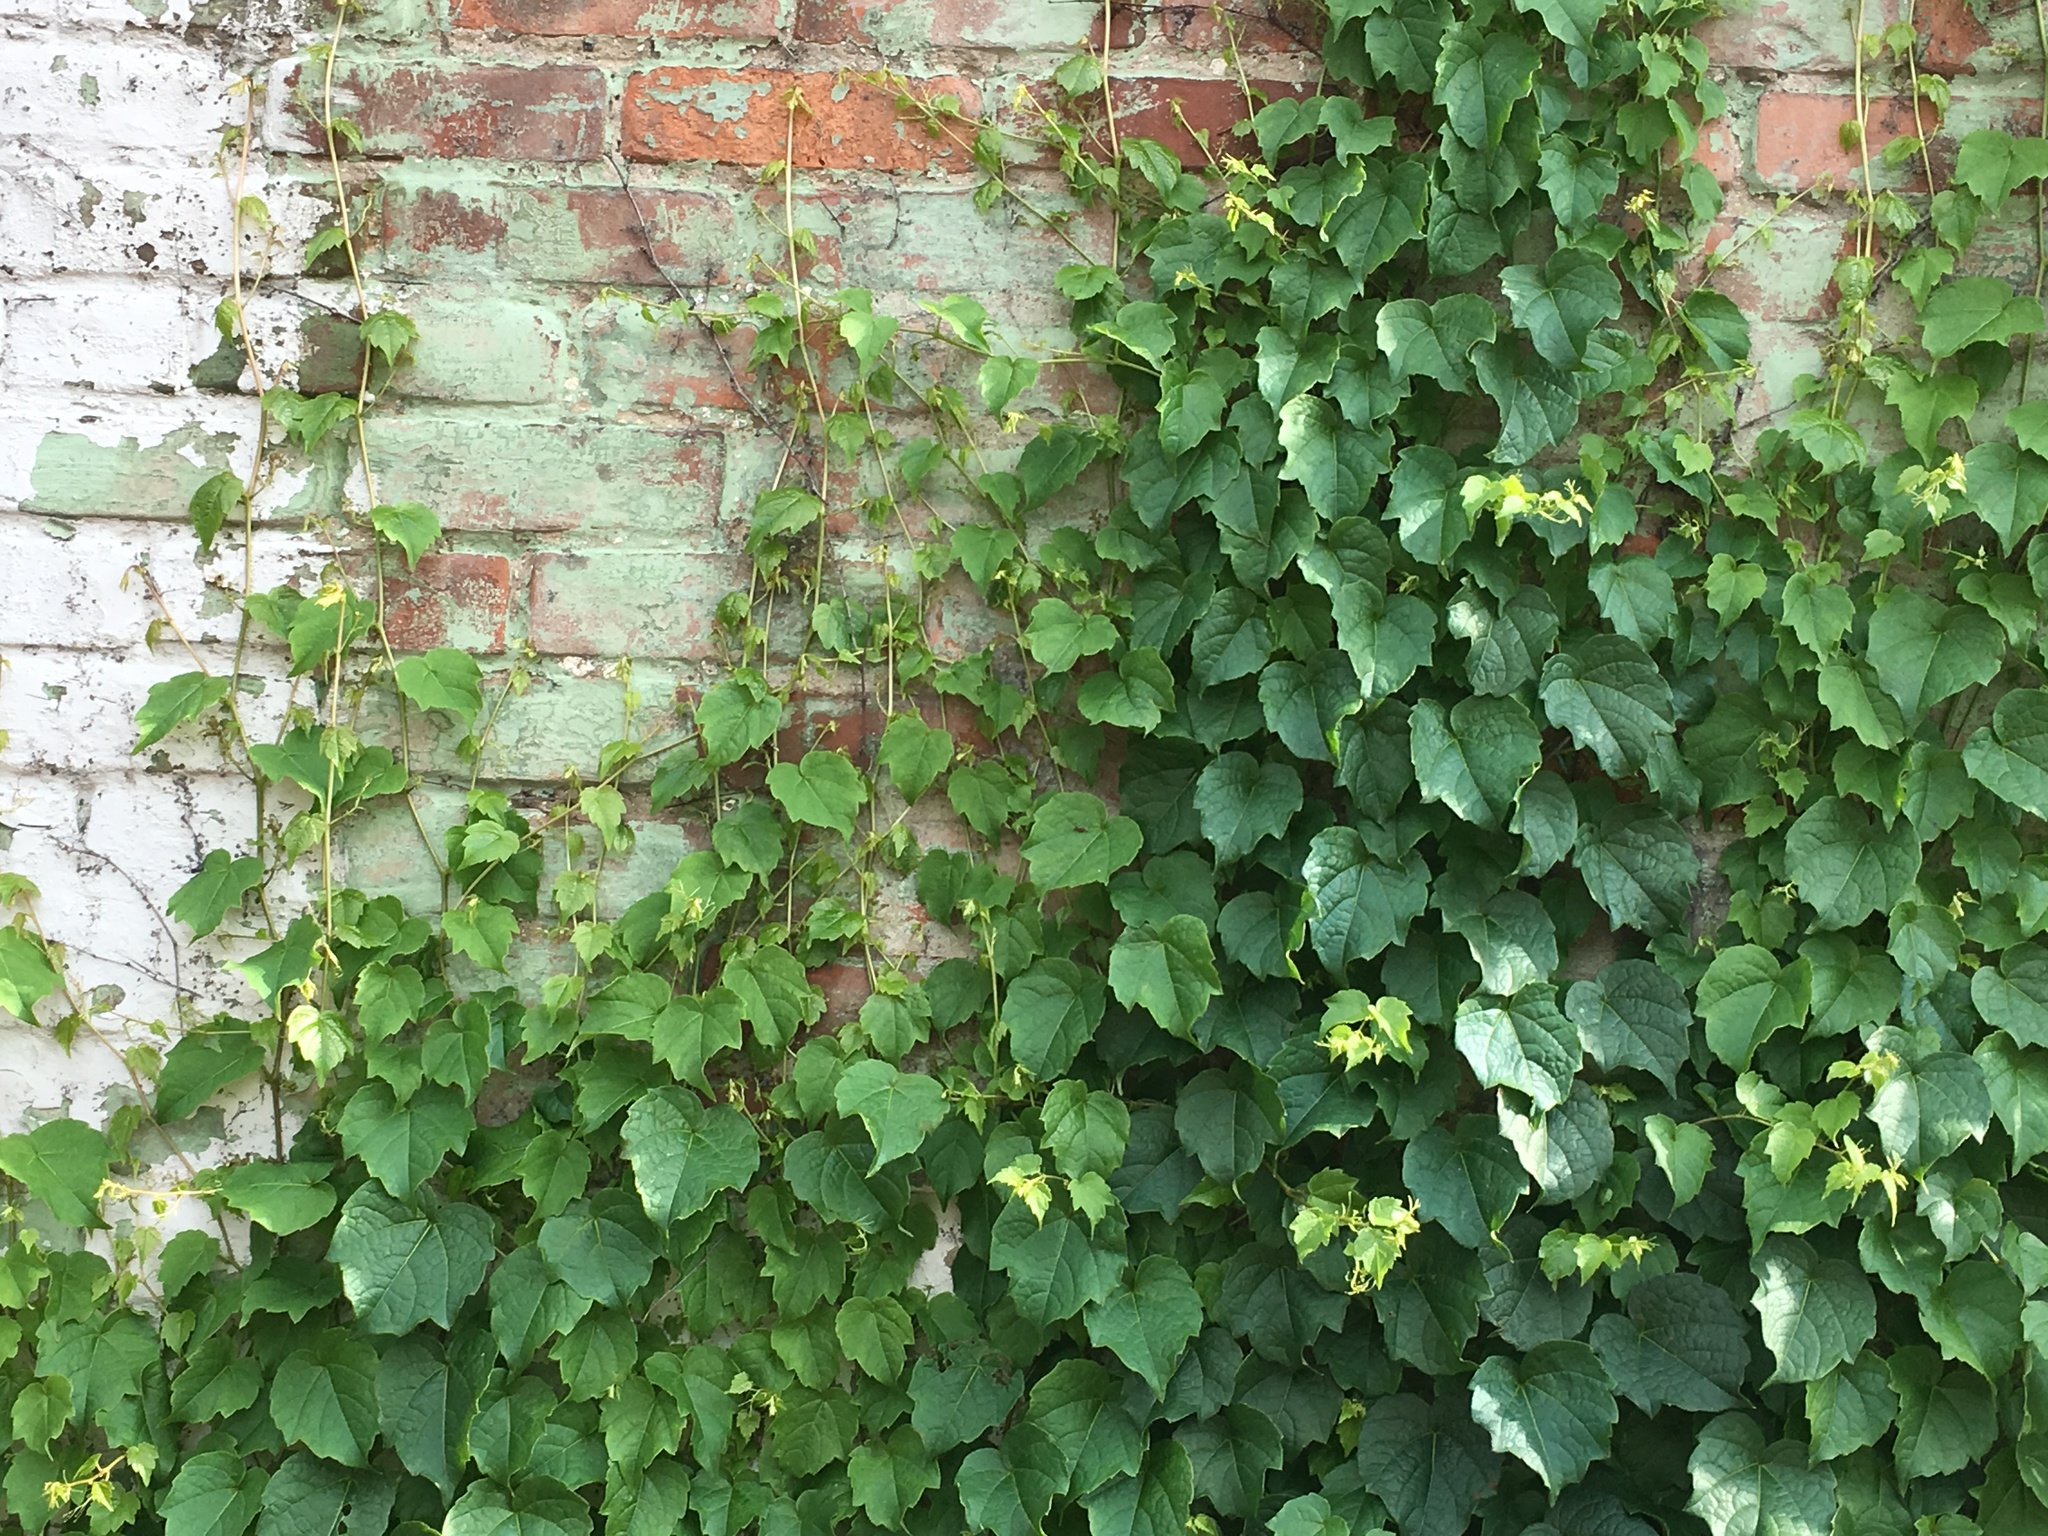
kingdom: Plantae
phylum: Tracheophyta
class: Magnoliopsida
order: Vitales
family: Vitaceae
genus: Parthenocissus
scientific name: Parthenocissus tricuspidata
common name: Boston ivy
